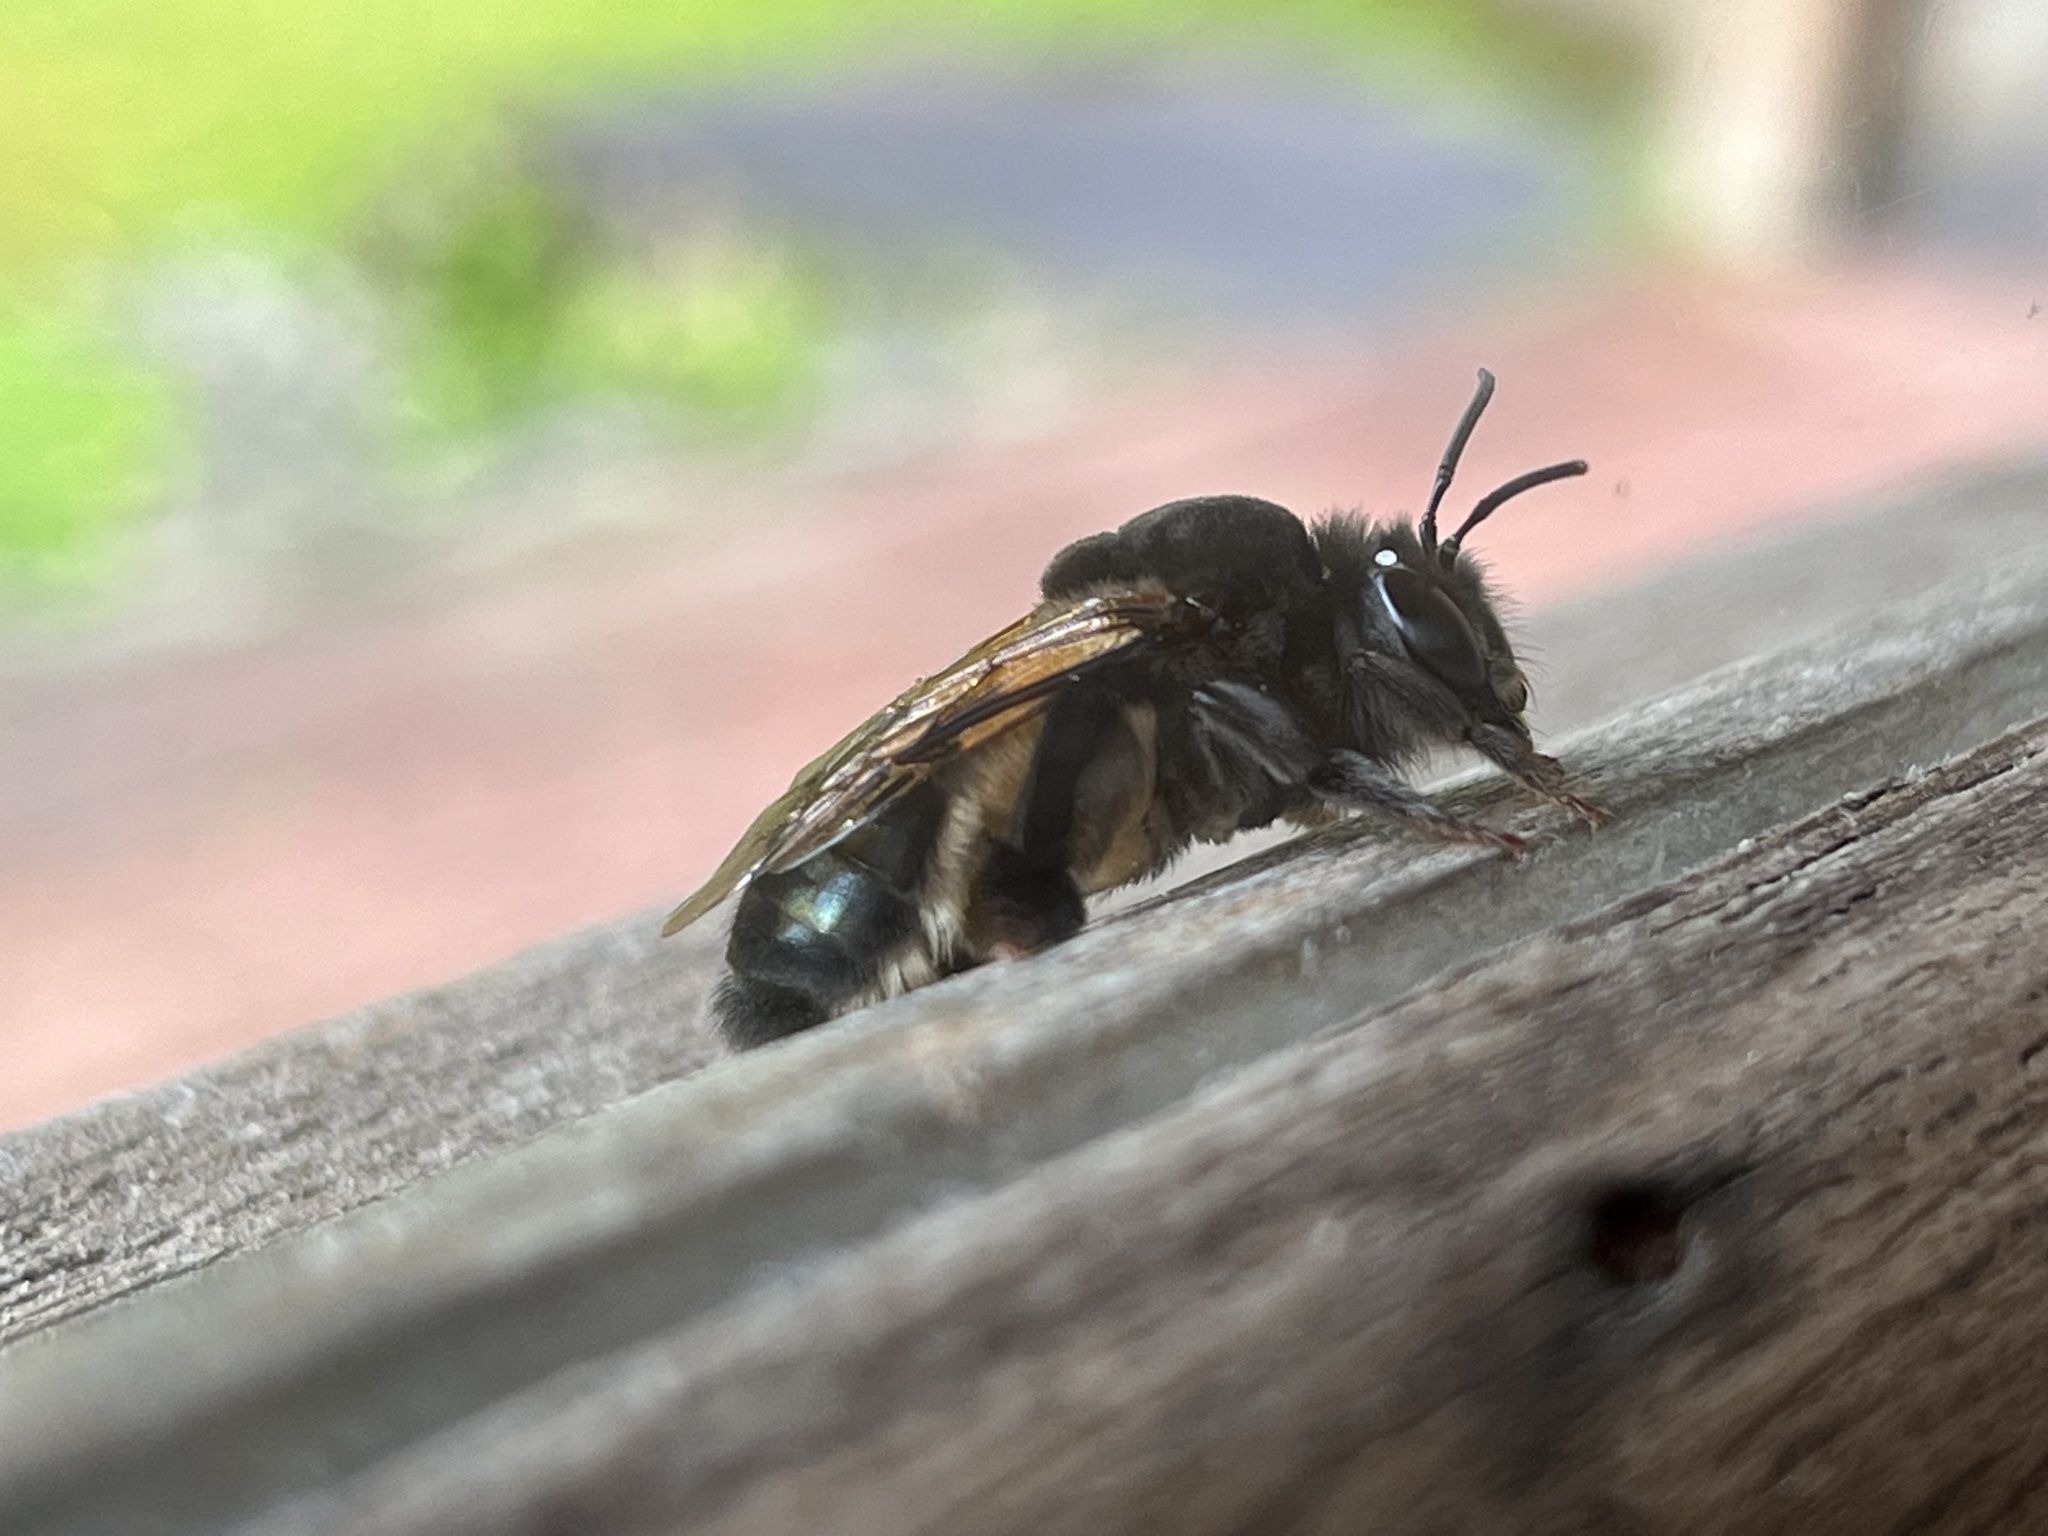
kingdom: Animalia
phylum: Arthropoda
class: Insecta
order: Hymenoptera
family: Colletidae
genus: Crawfordapis
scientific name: Crawfordapis crawfordi
